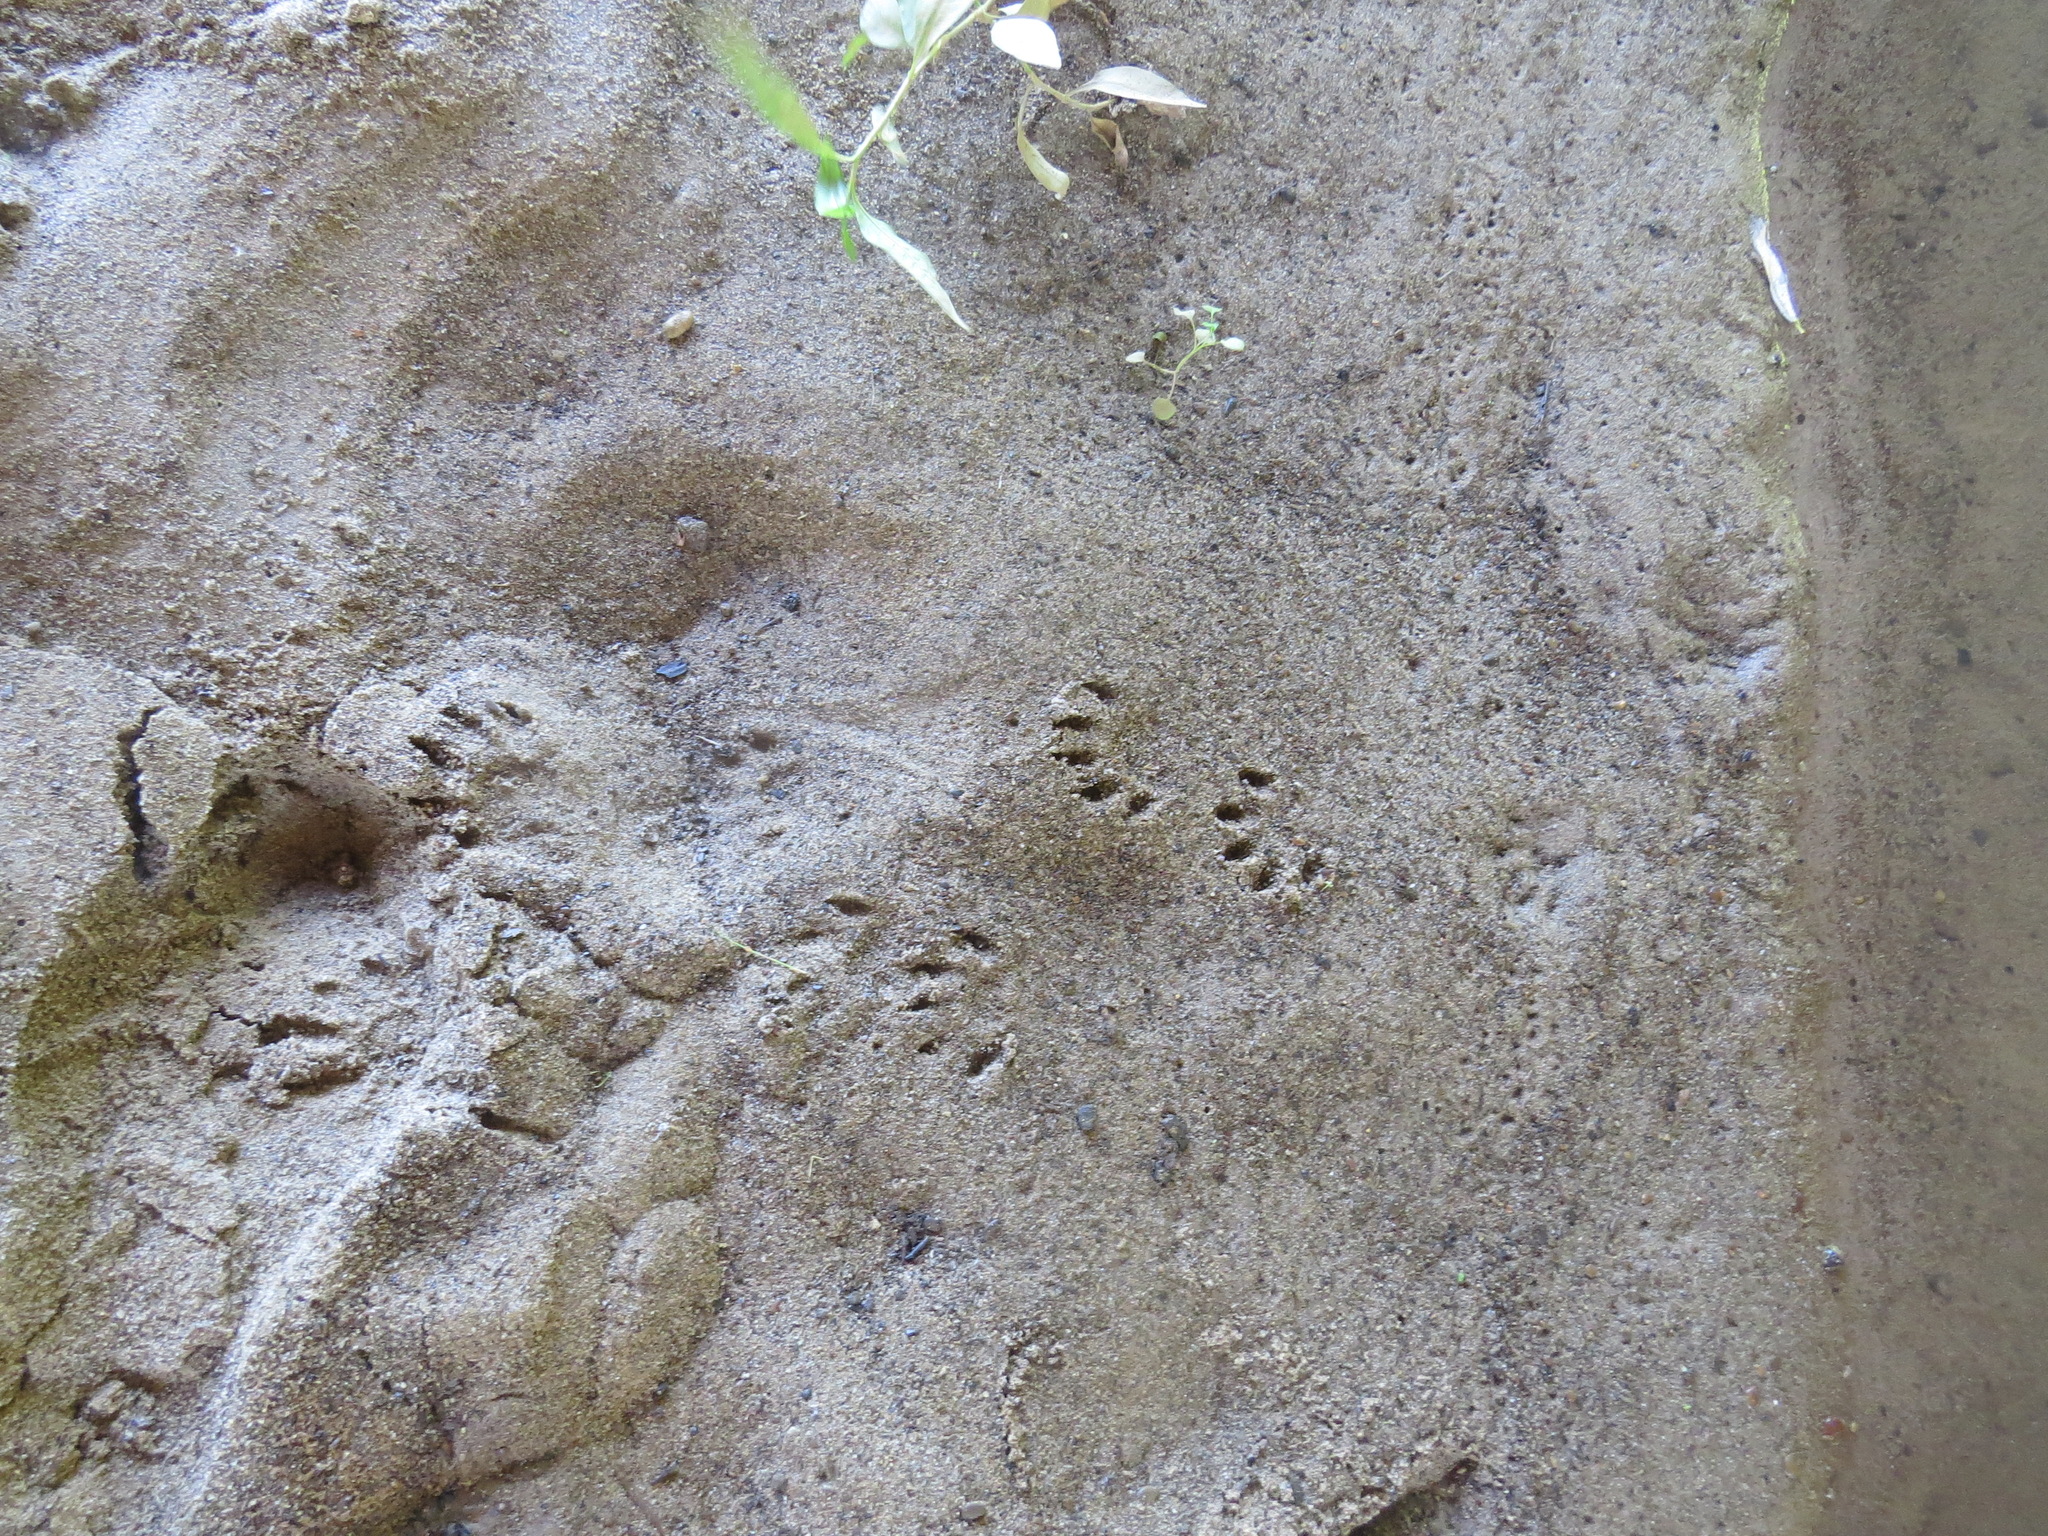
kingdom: Animalia
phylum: Chordata
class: Mammalia
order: Carnivora
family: Procyonidae
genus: Procyon
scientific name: Procyon lotor
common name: Raccoon
